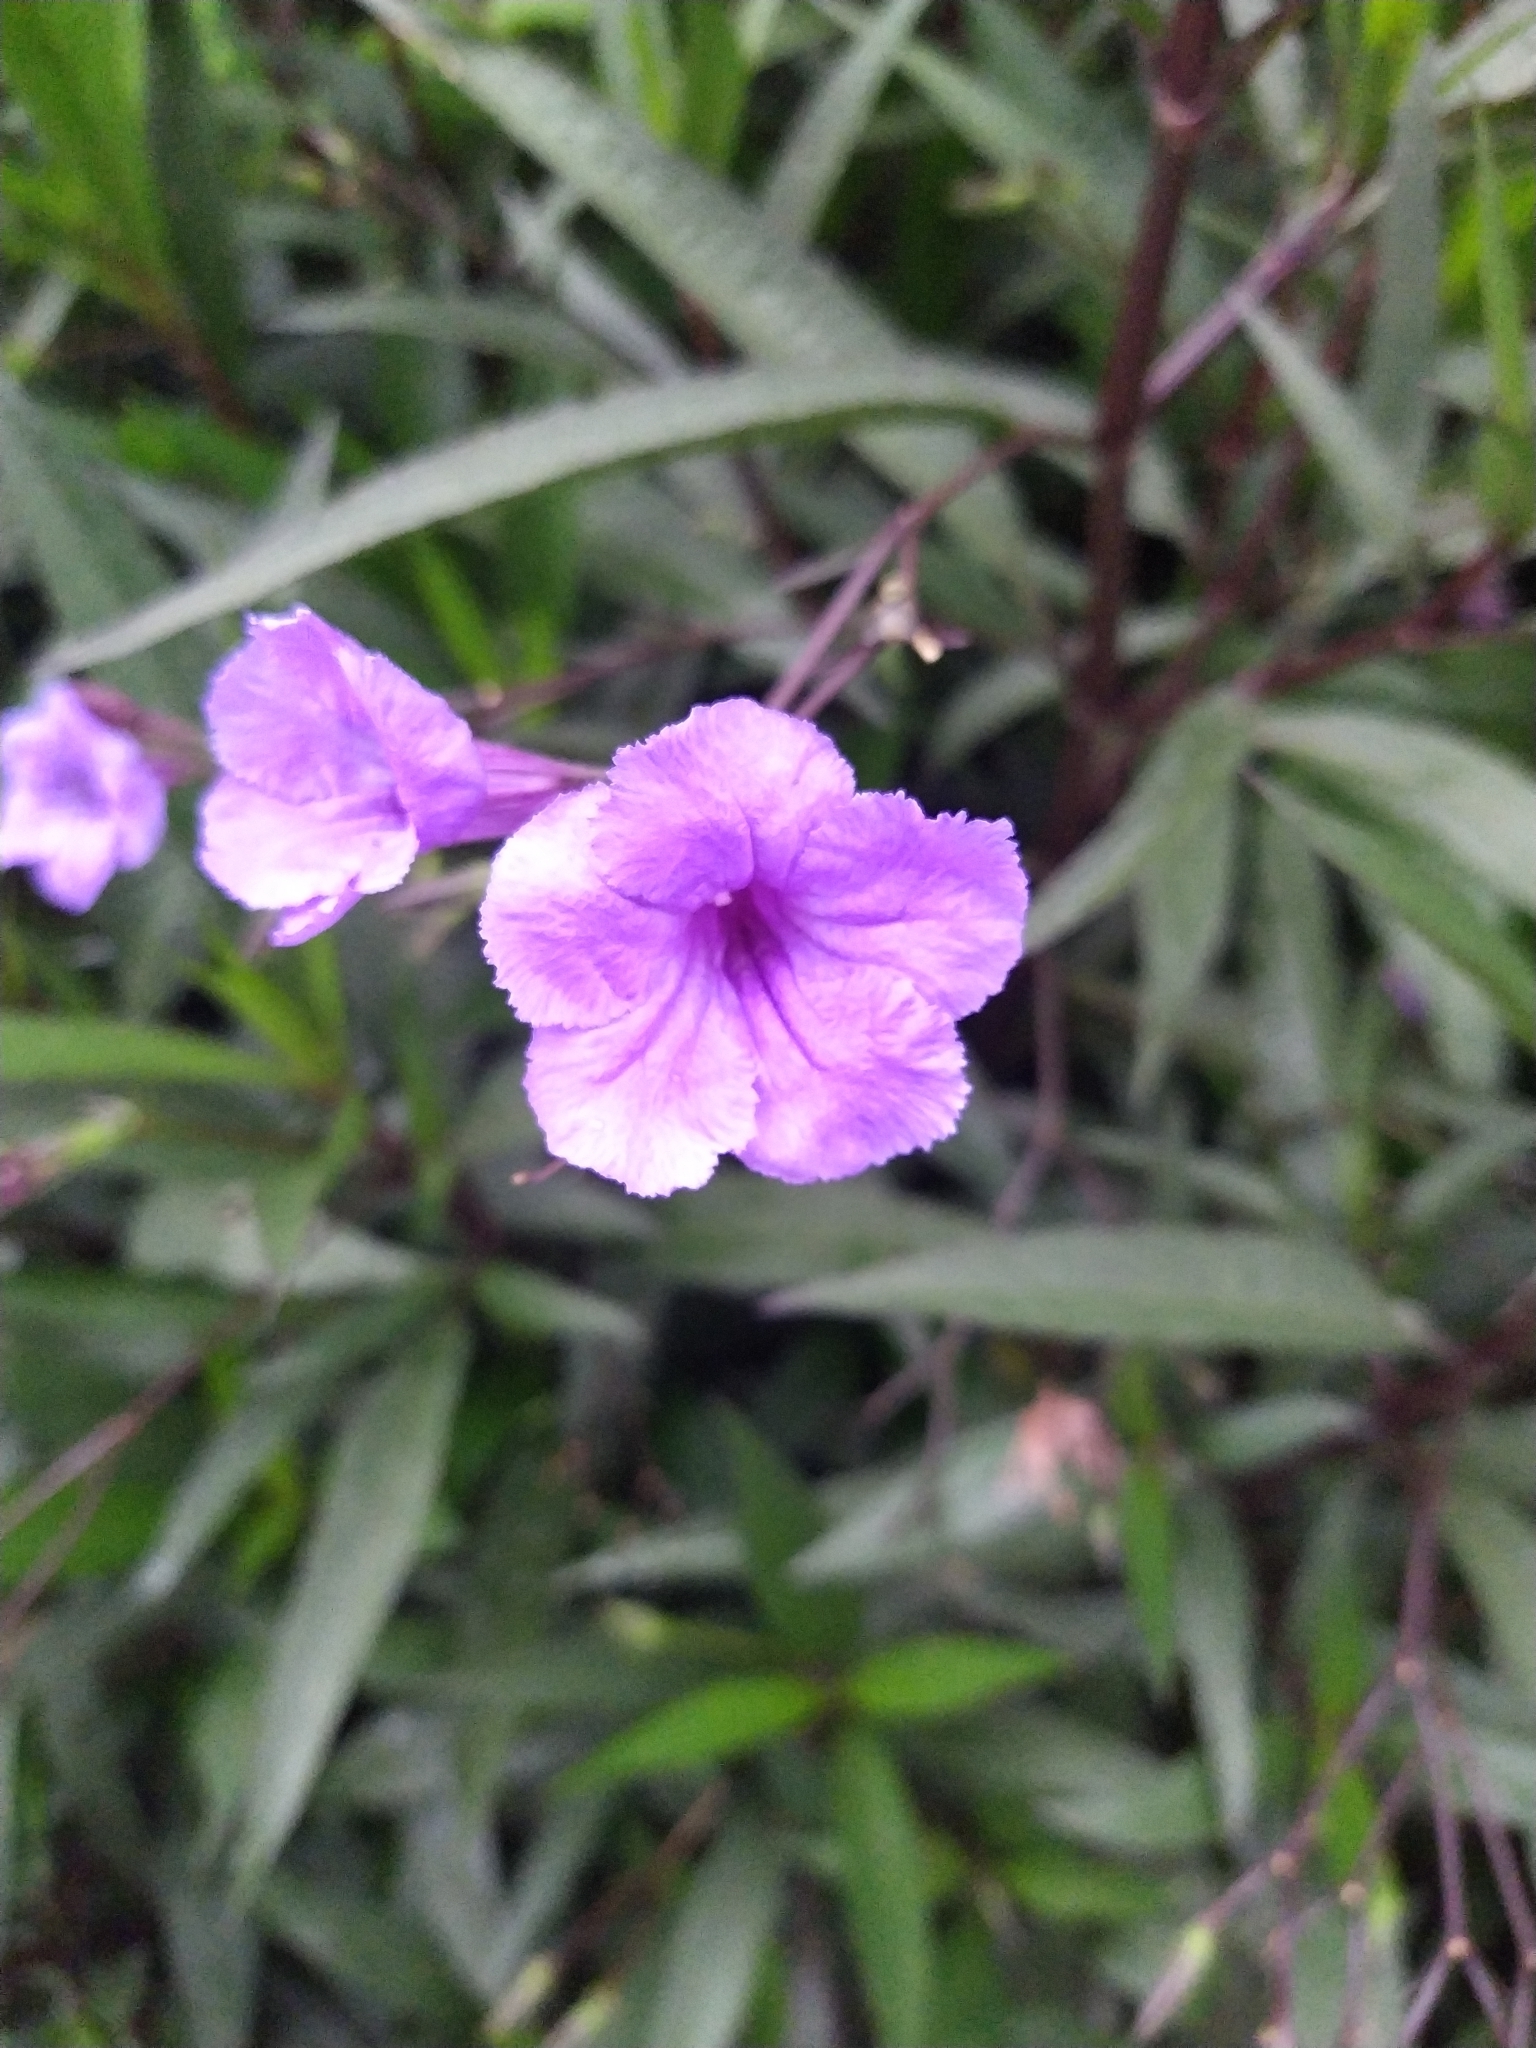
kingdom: Plantae
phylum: Tracheophyta
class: Magnoliopsida
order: Lamiales
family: Acanthaceae
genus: Ruellia
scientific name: Ruellia simplex
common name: Softseed wild petunia
